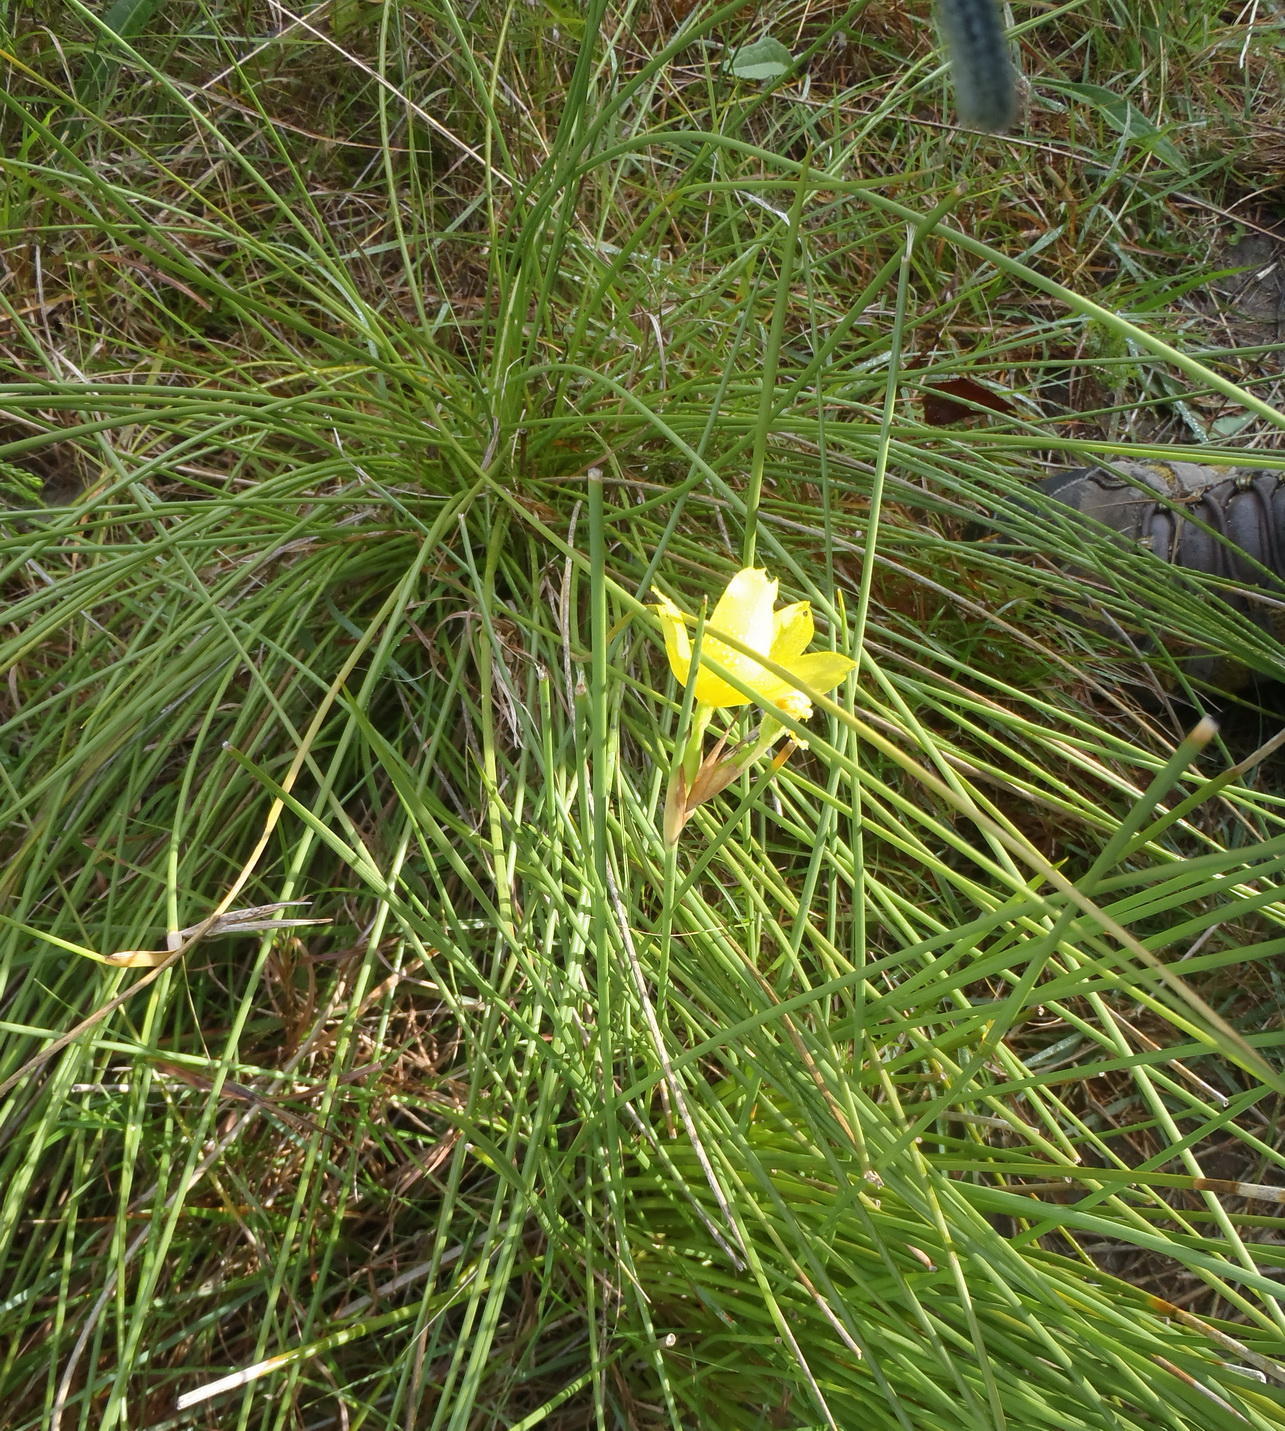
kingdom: Plantae
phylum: Tracheophyta
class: Liliopsida
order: Asparagales
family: Iridaceae
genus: Bobartia
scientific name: Bobartia aphylla
